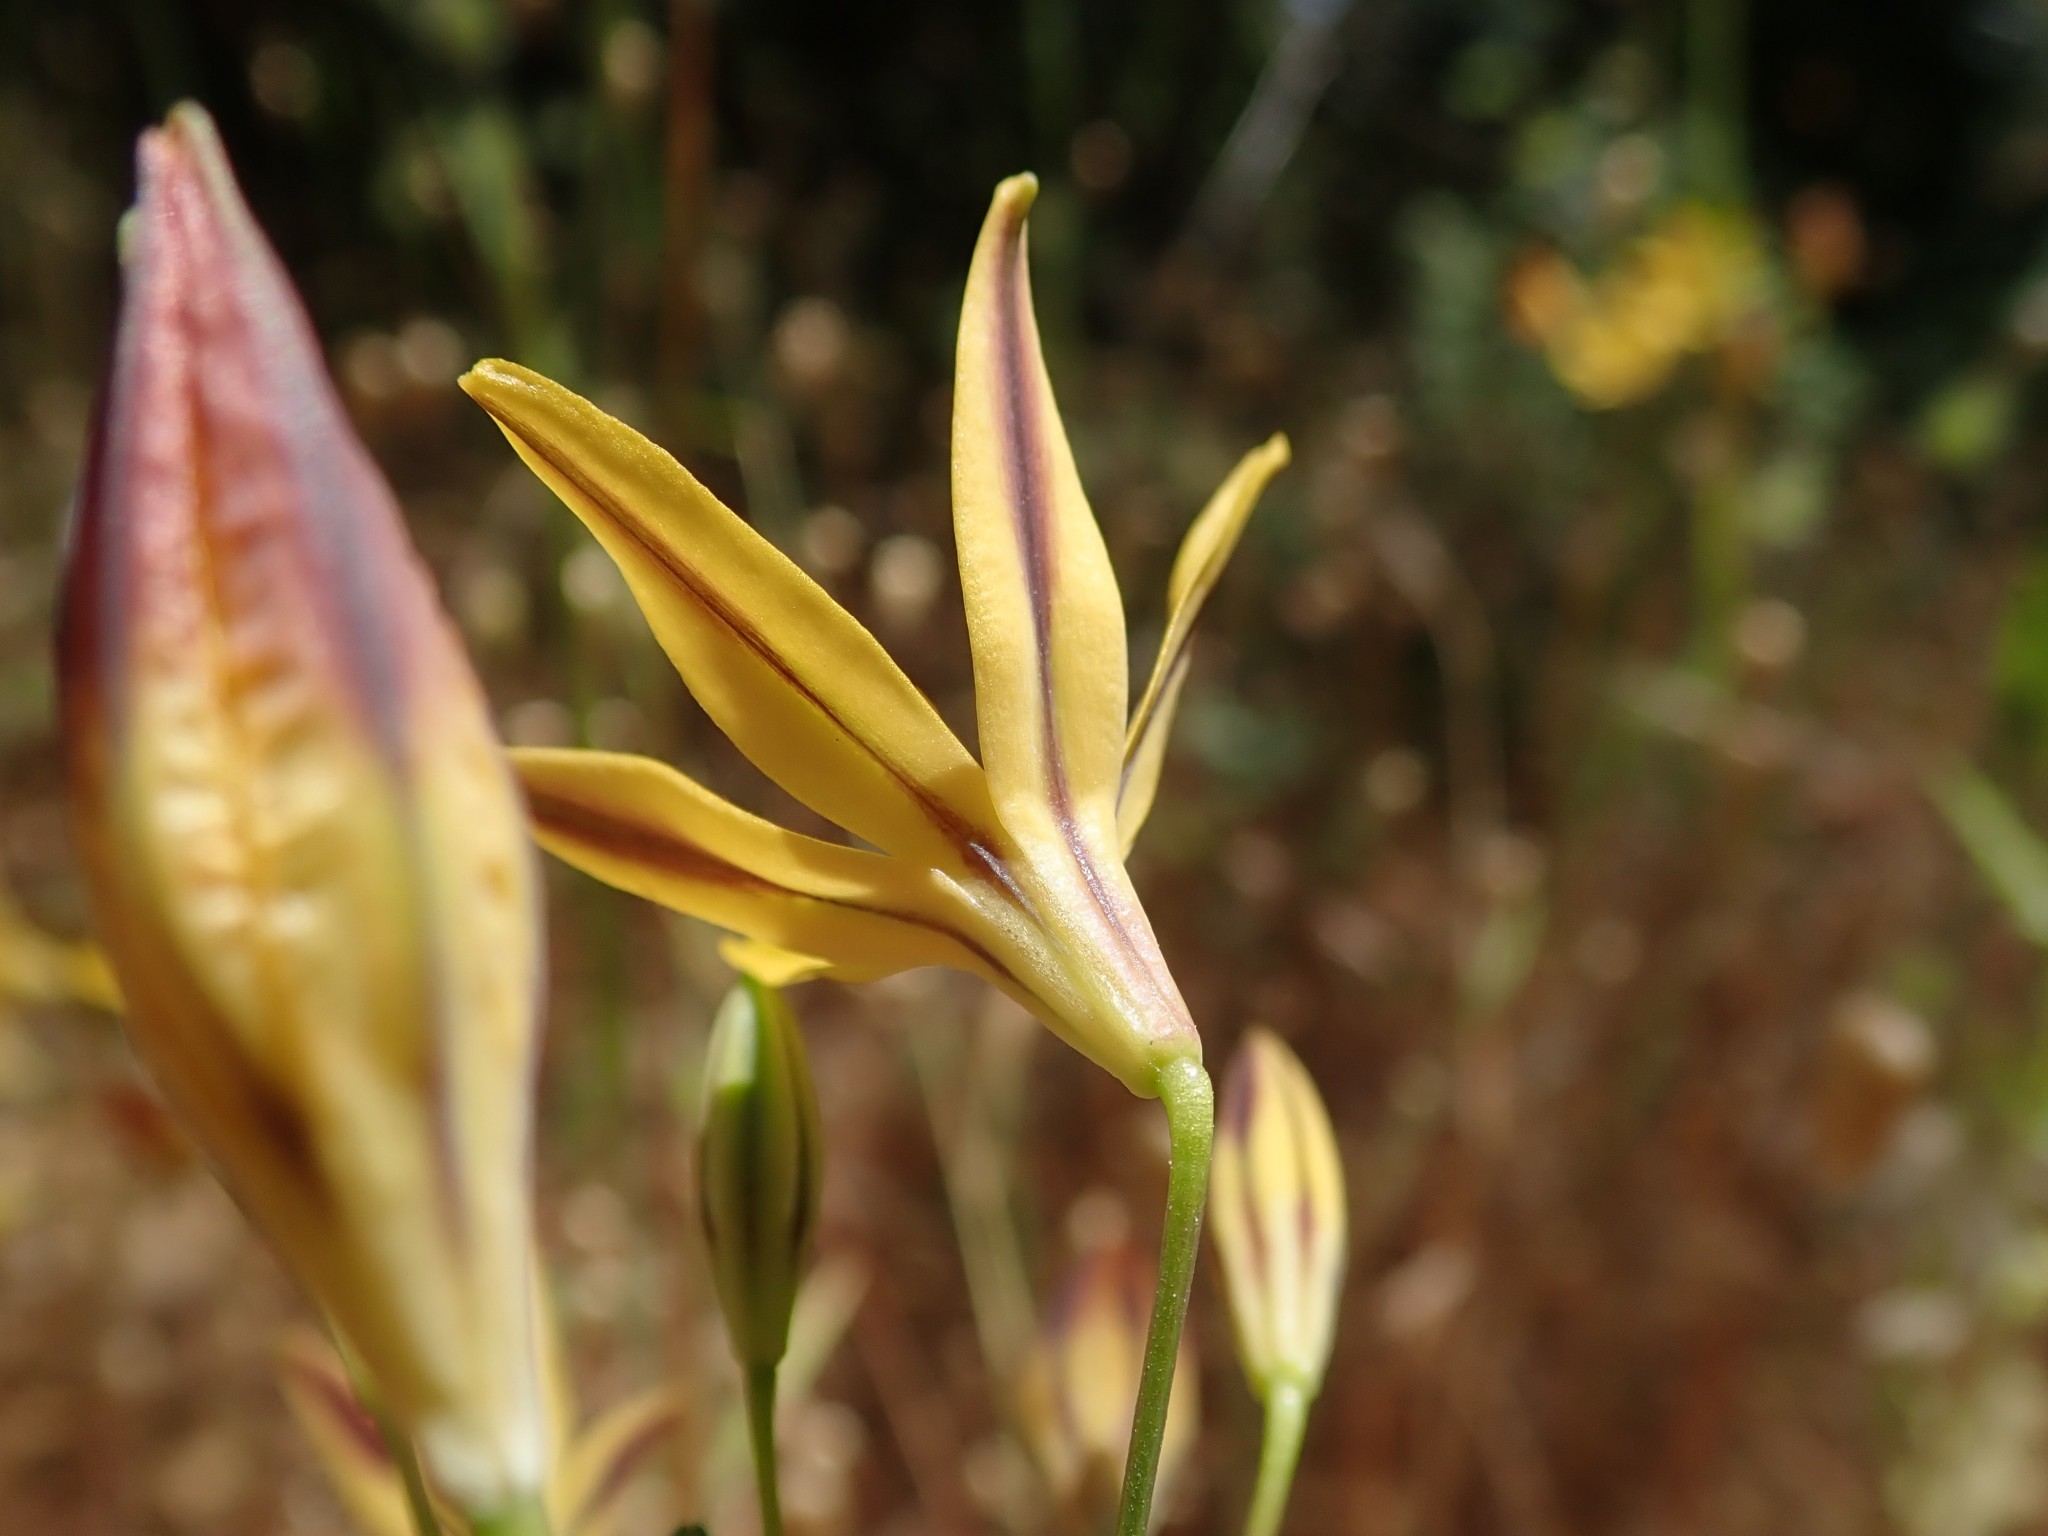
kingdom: Plantae
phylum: Tracheophyta
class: Liliopsida
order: Asparagales
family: Asparagaceae
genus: Triteleia
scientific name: Triteleia ixioides
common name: Yellow-brodiaea
